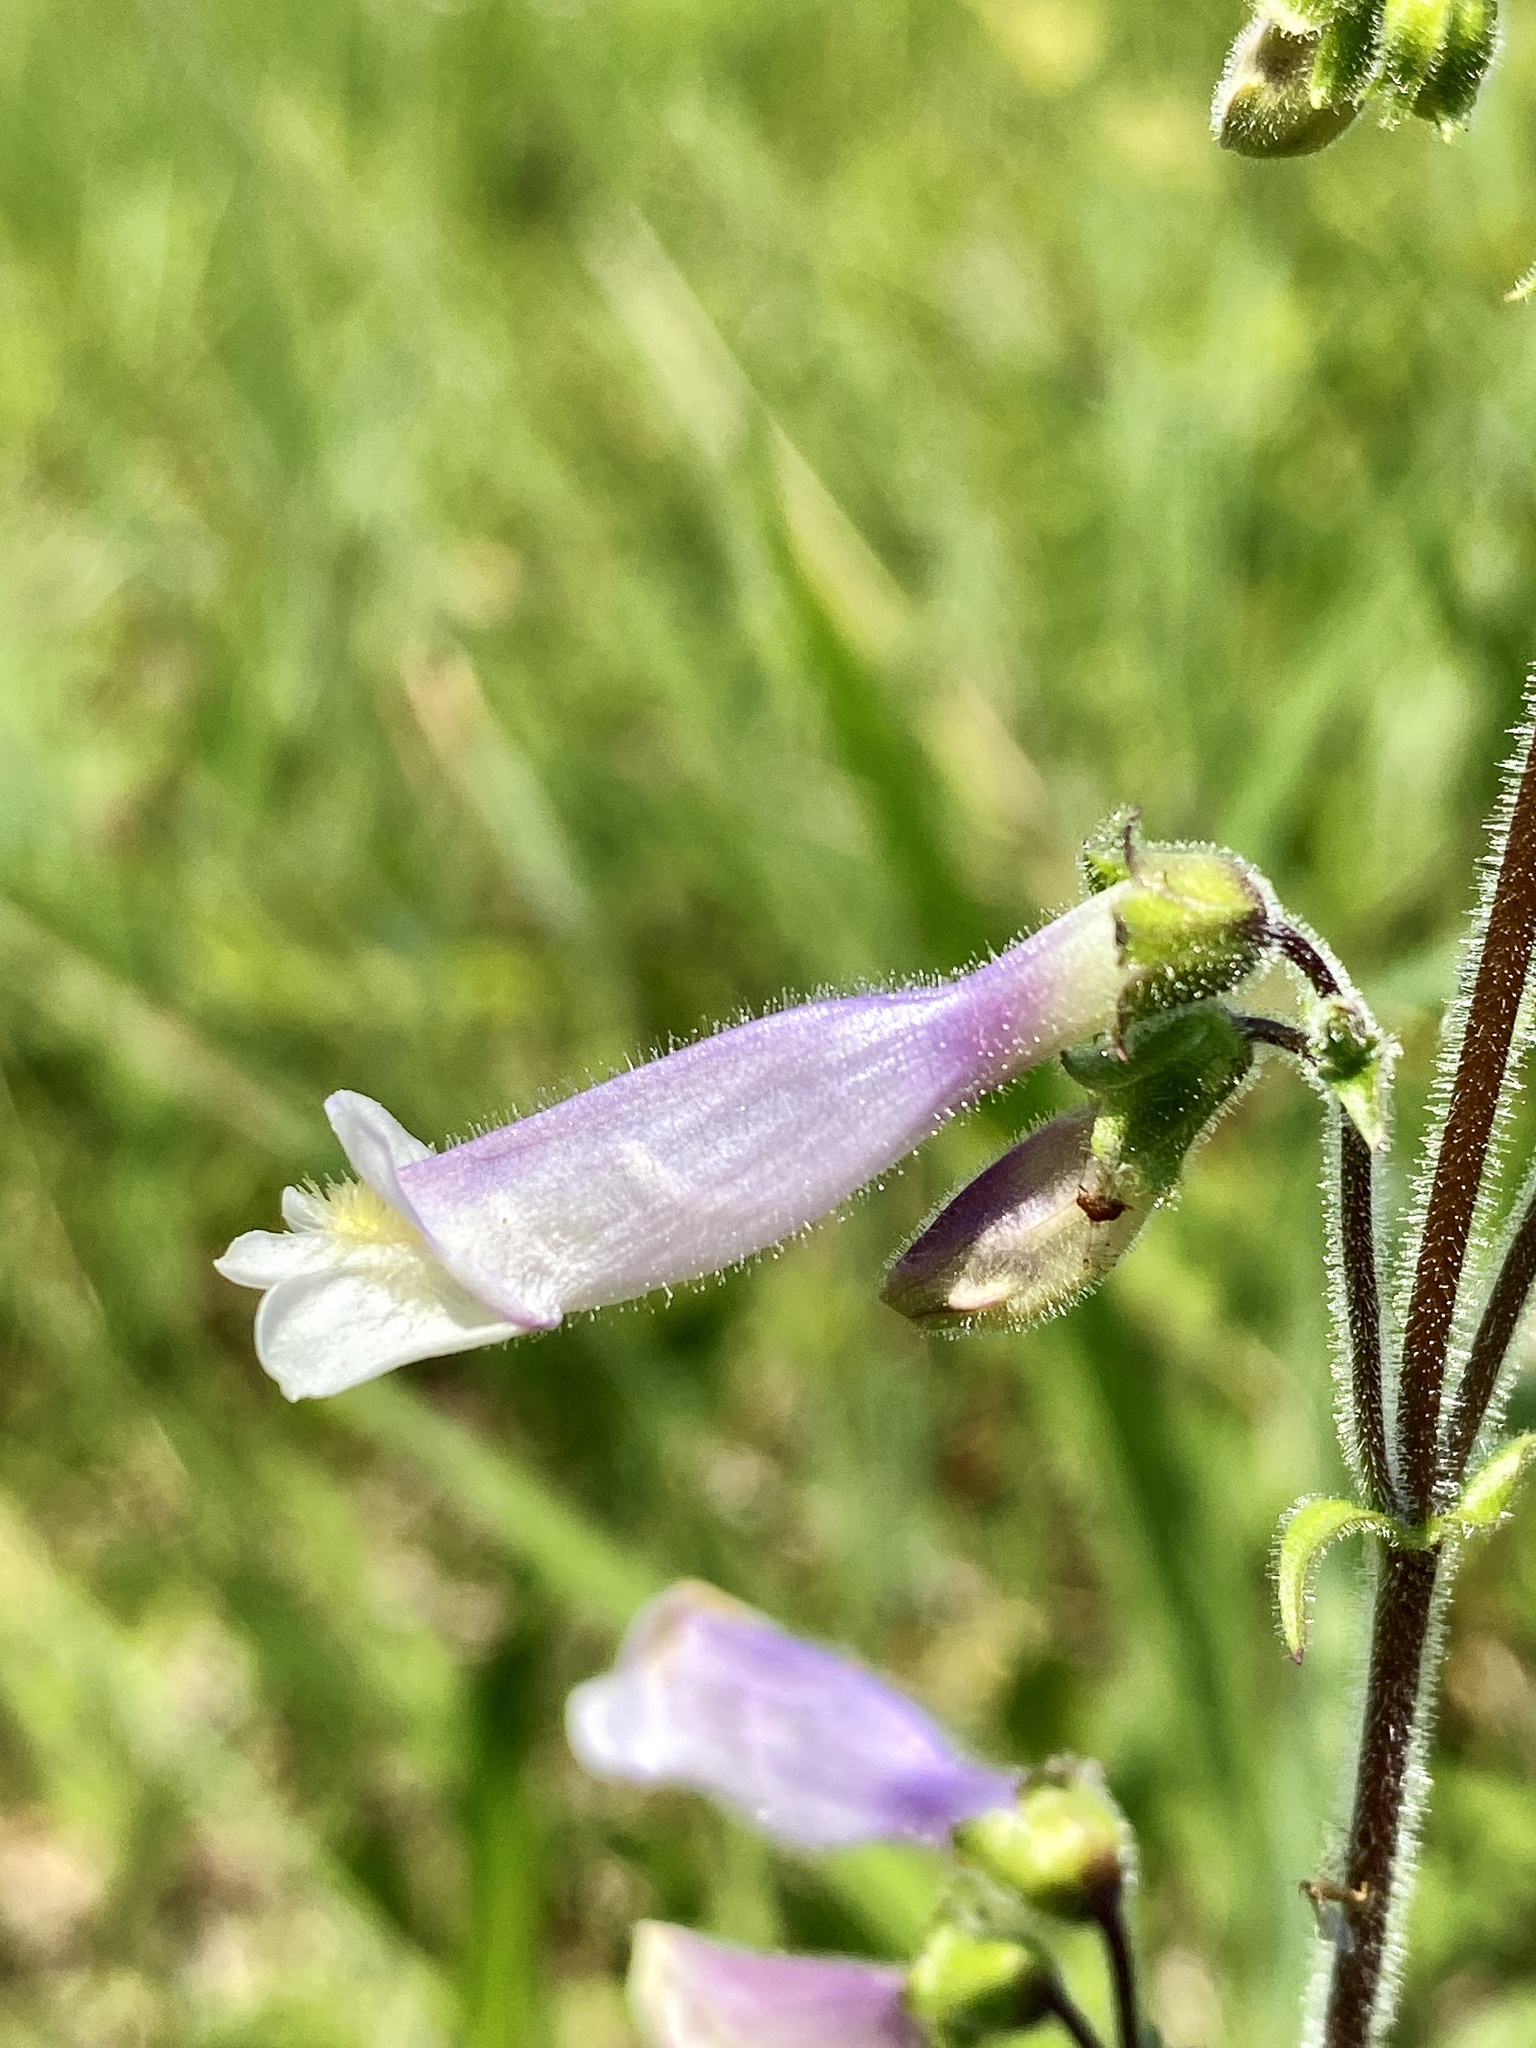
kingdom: Plantae
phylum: Tracheophyta
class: Magnoliopsida
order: Lamiales
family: Plantaginaceae
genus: Penstemon
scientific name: Penstemon hirsutus
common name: Hairy beardtongue
